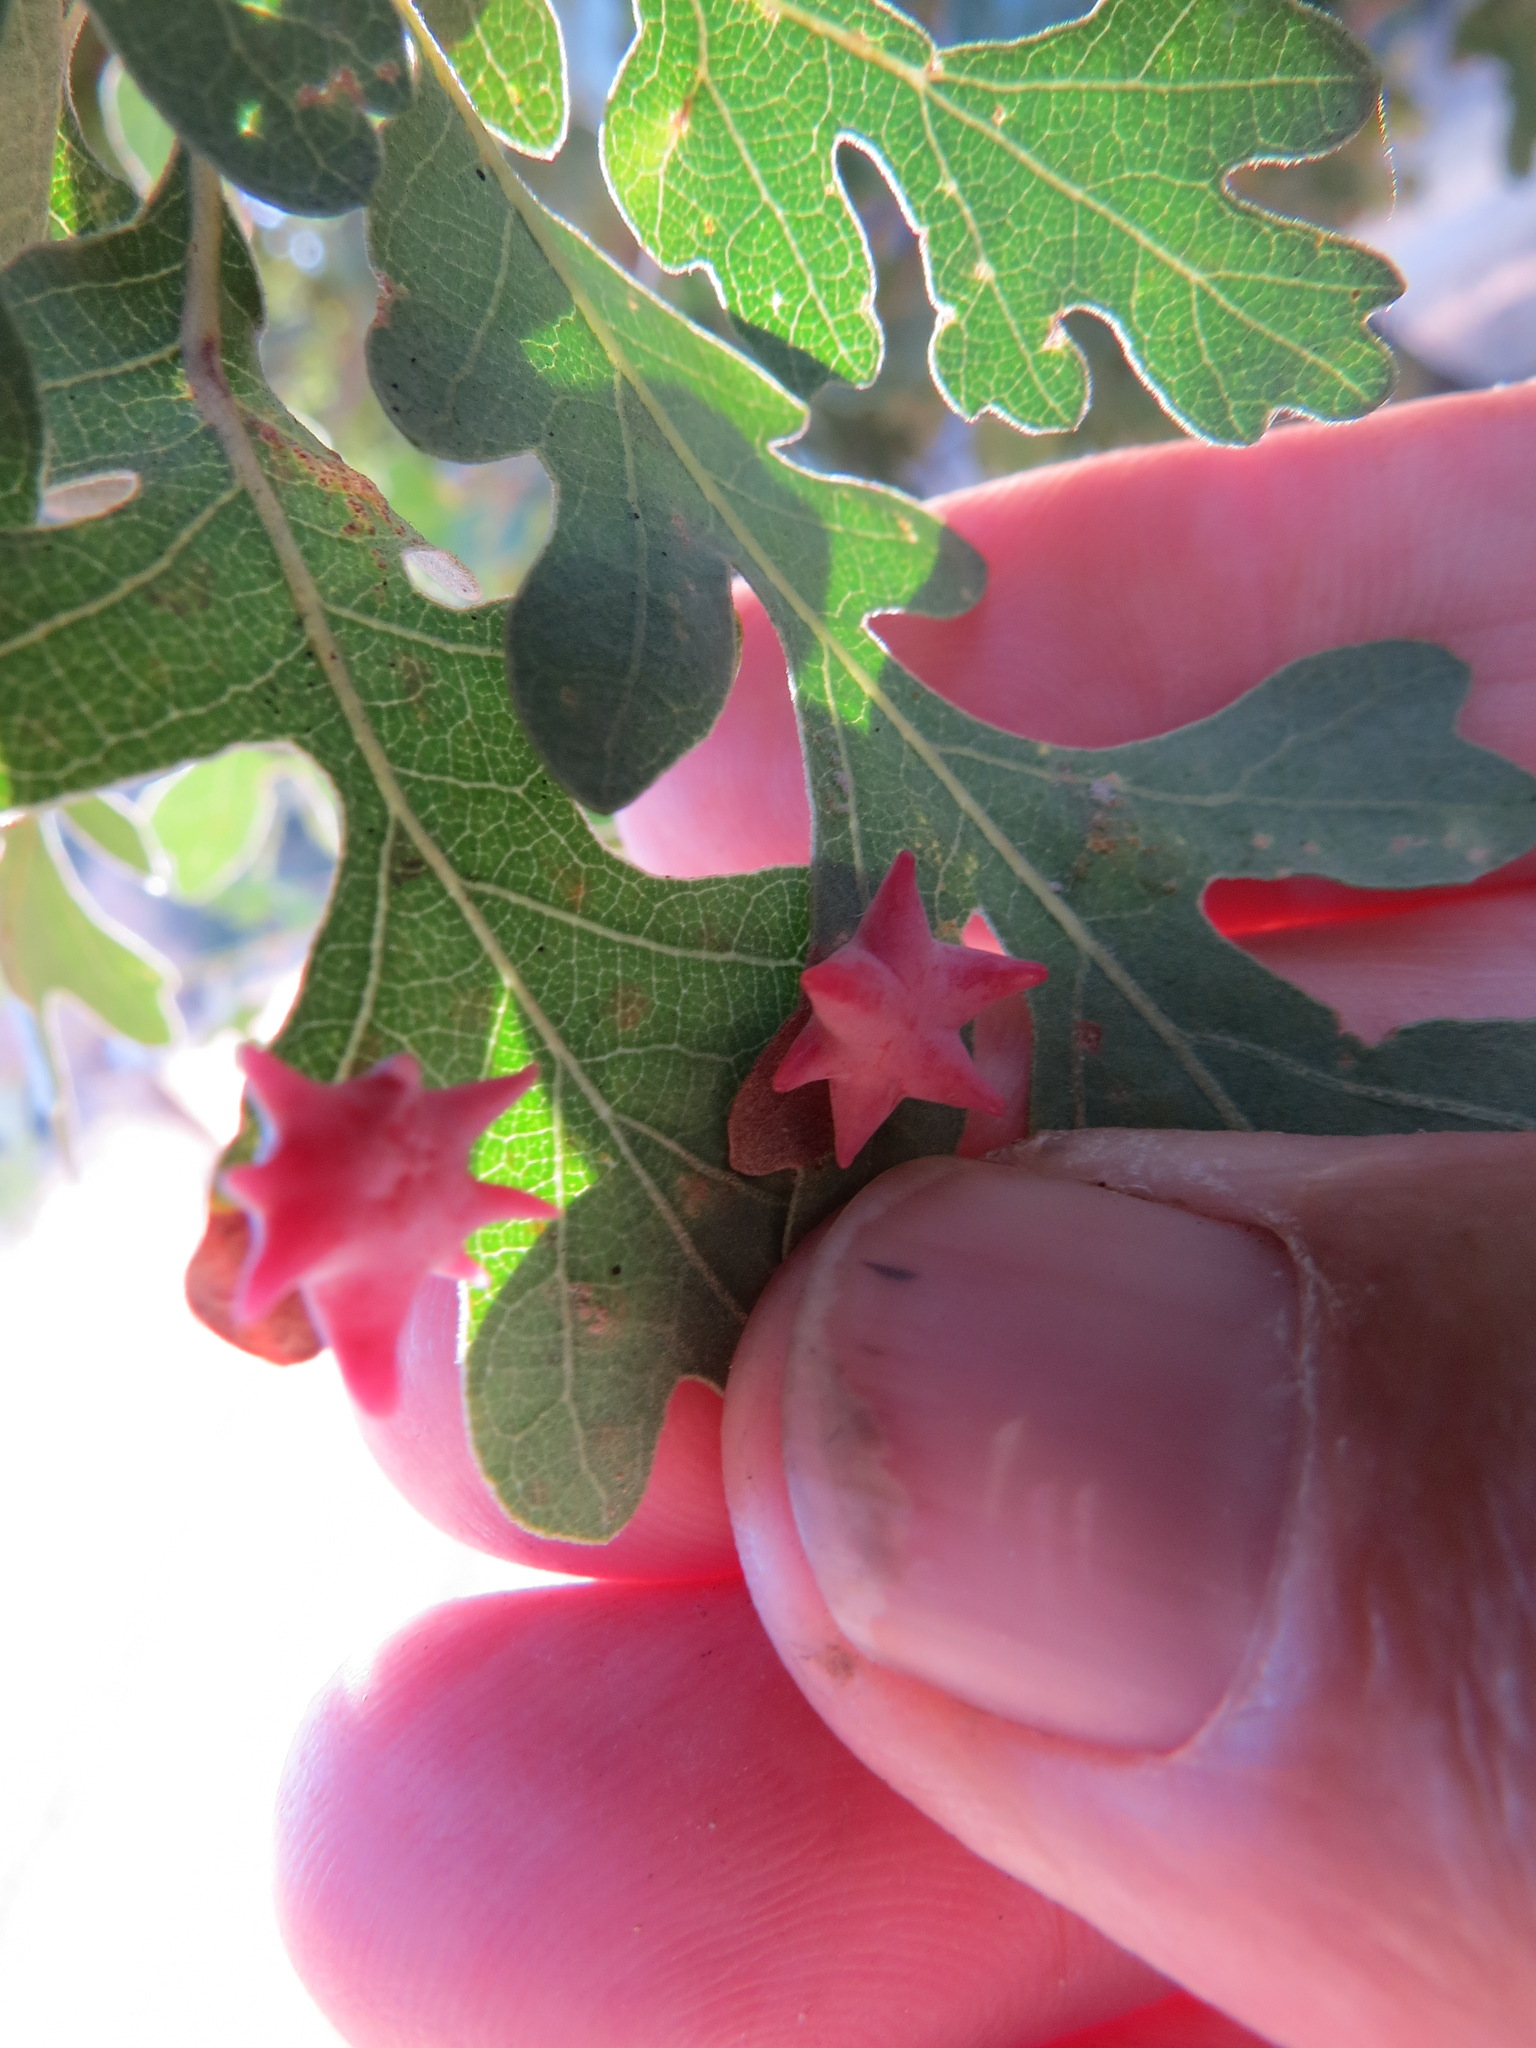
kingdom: Animalia
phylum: Arthropoda
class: Insecta
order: Hymenoptera
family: Cynipidae
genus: Cynips
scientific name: Cynips douglasi
